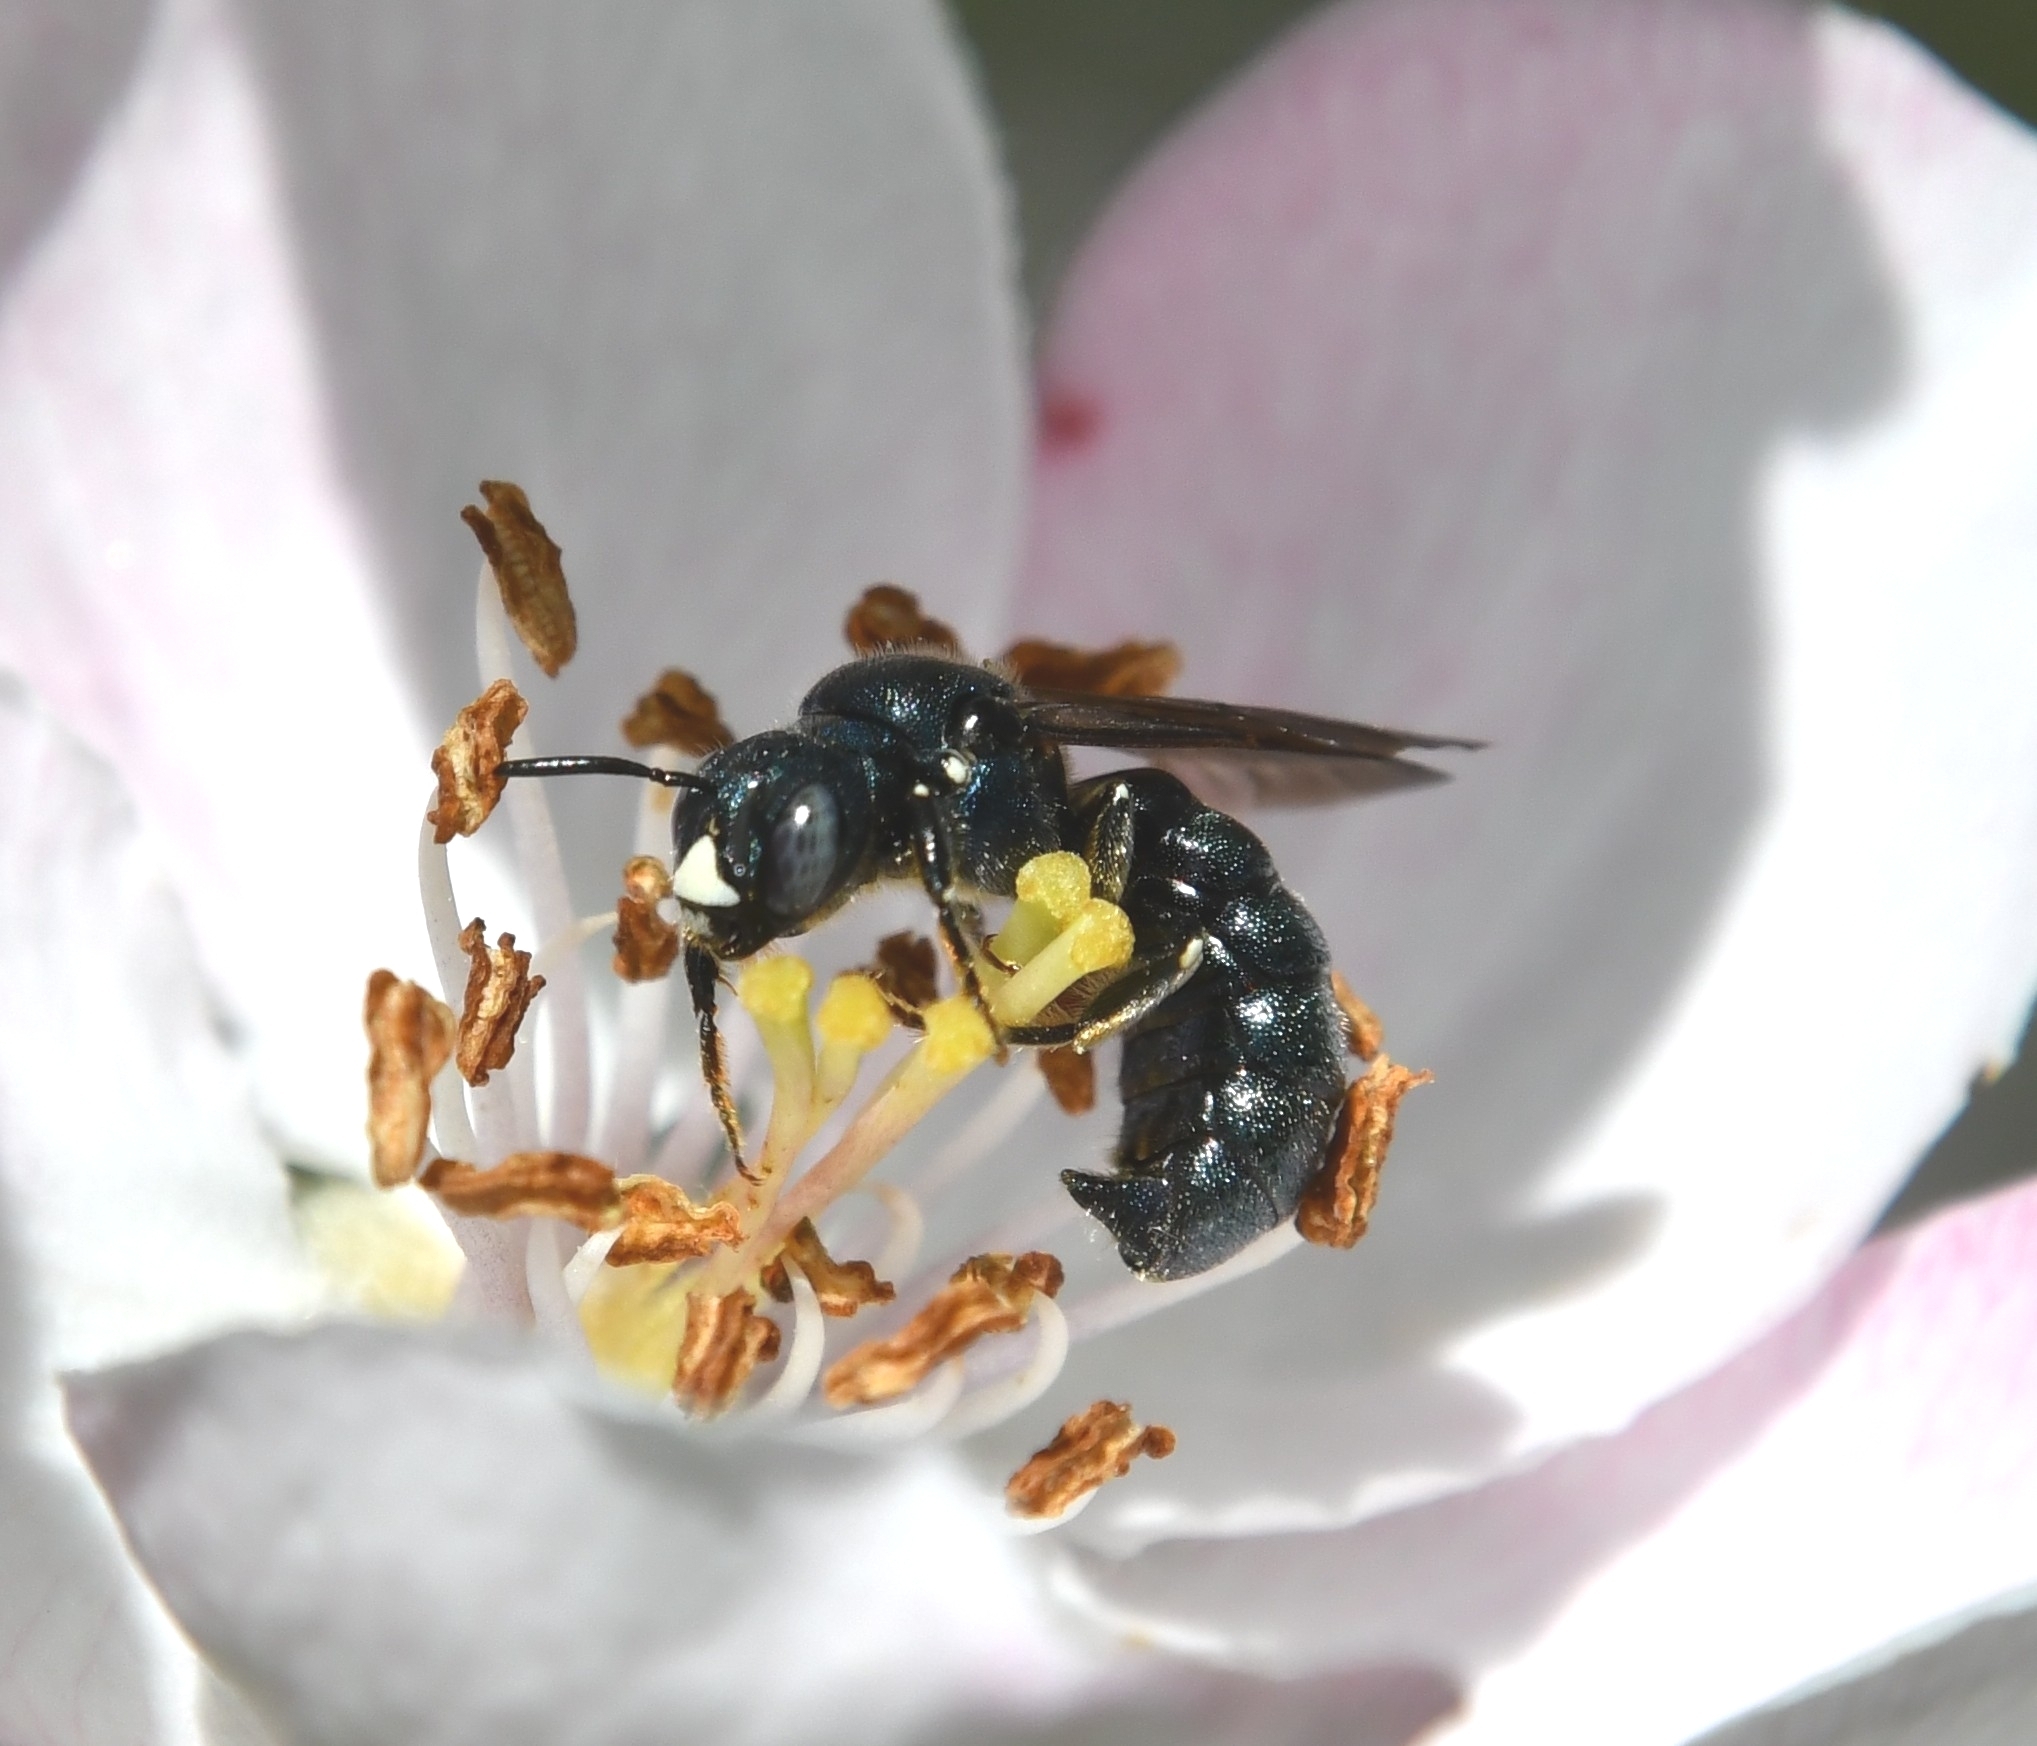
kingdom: Animalia
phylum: Arthropoda
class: Insecta
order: Hymenoptera
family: Apidae
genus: Ceratina
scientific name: Ceratina chalcites
